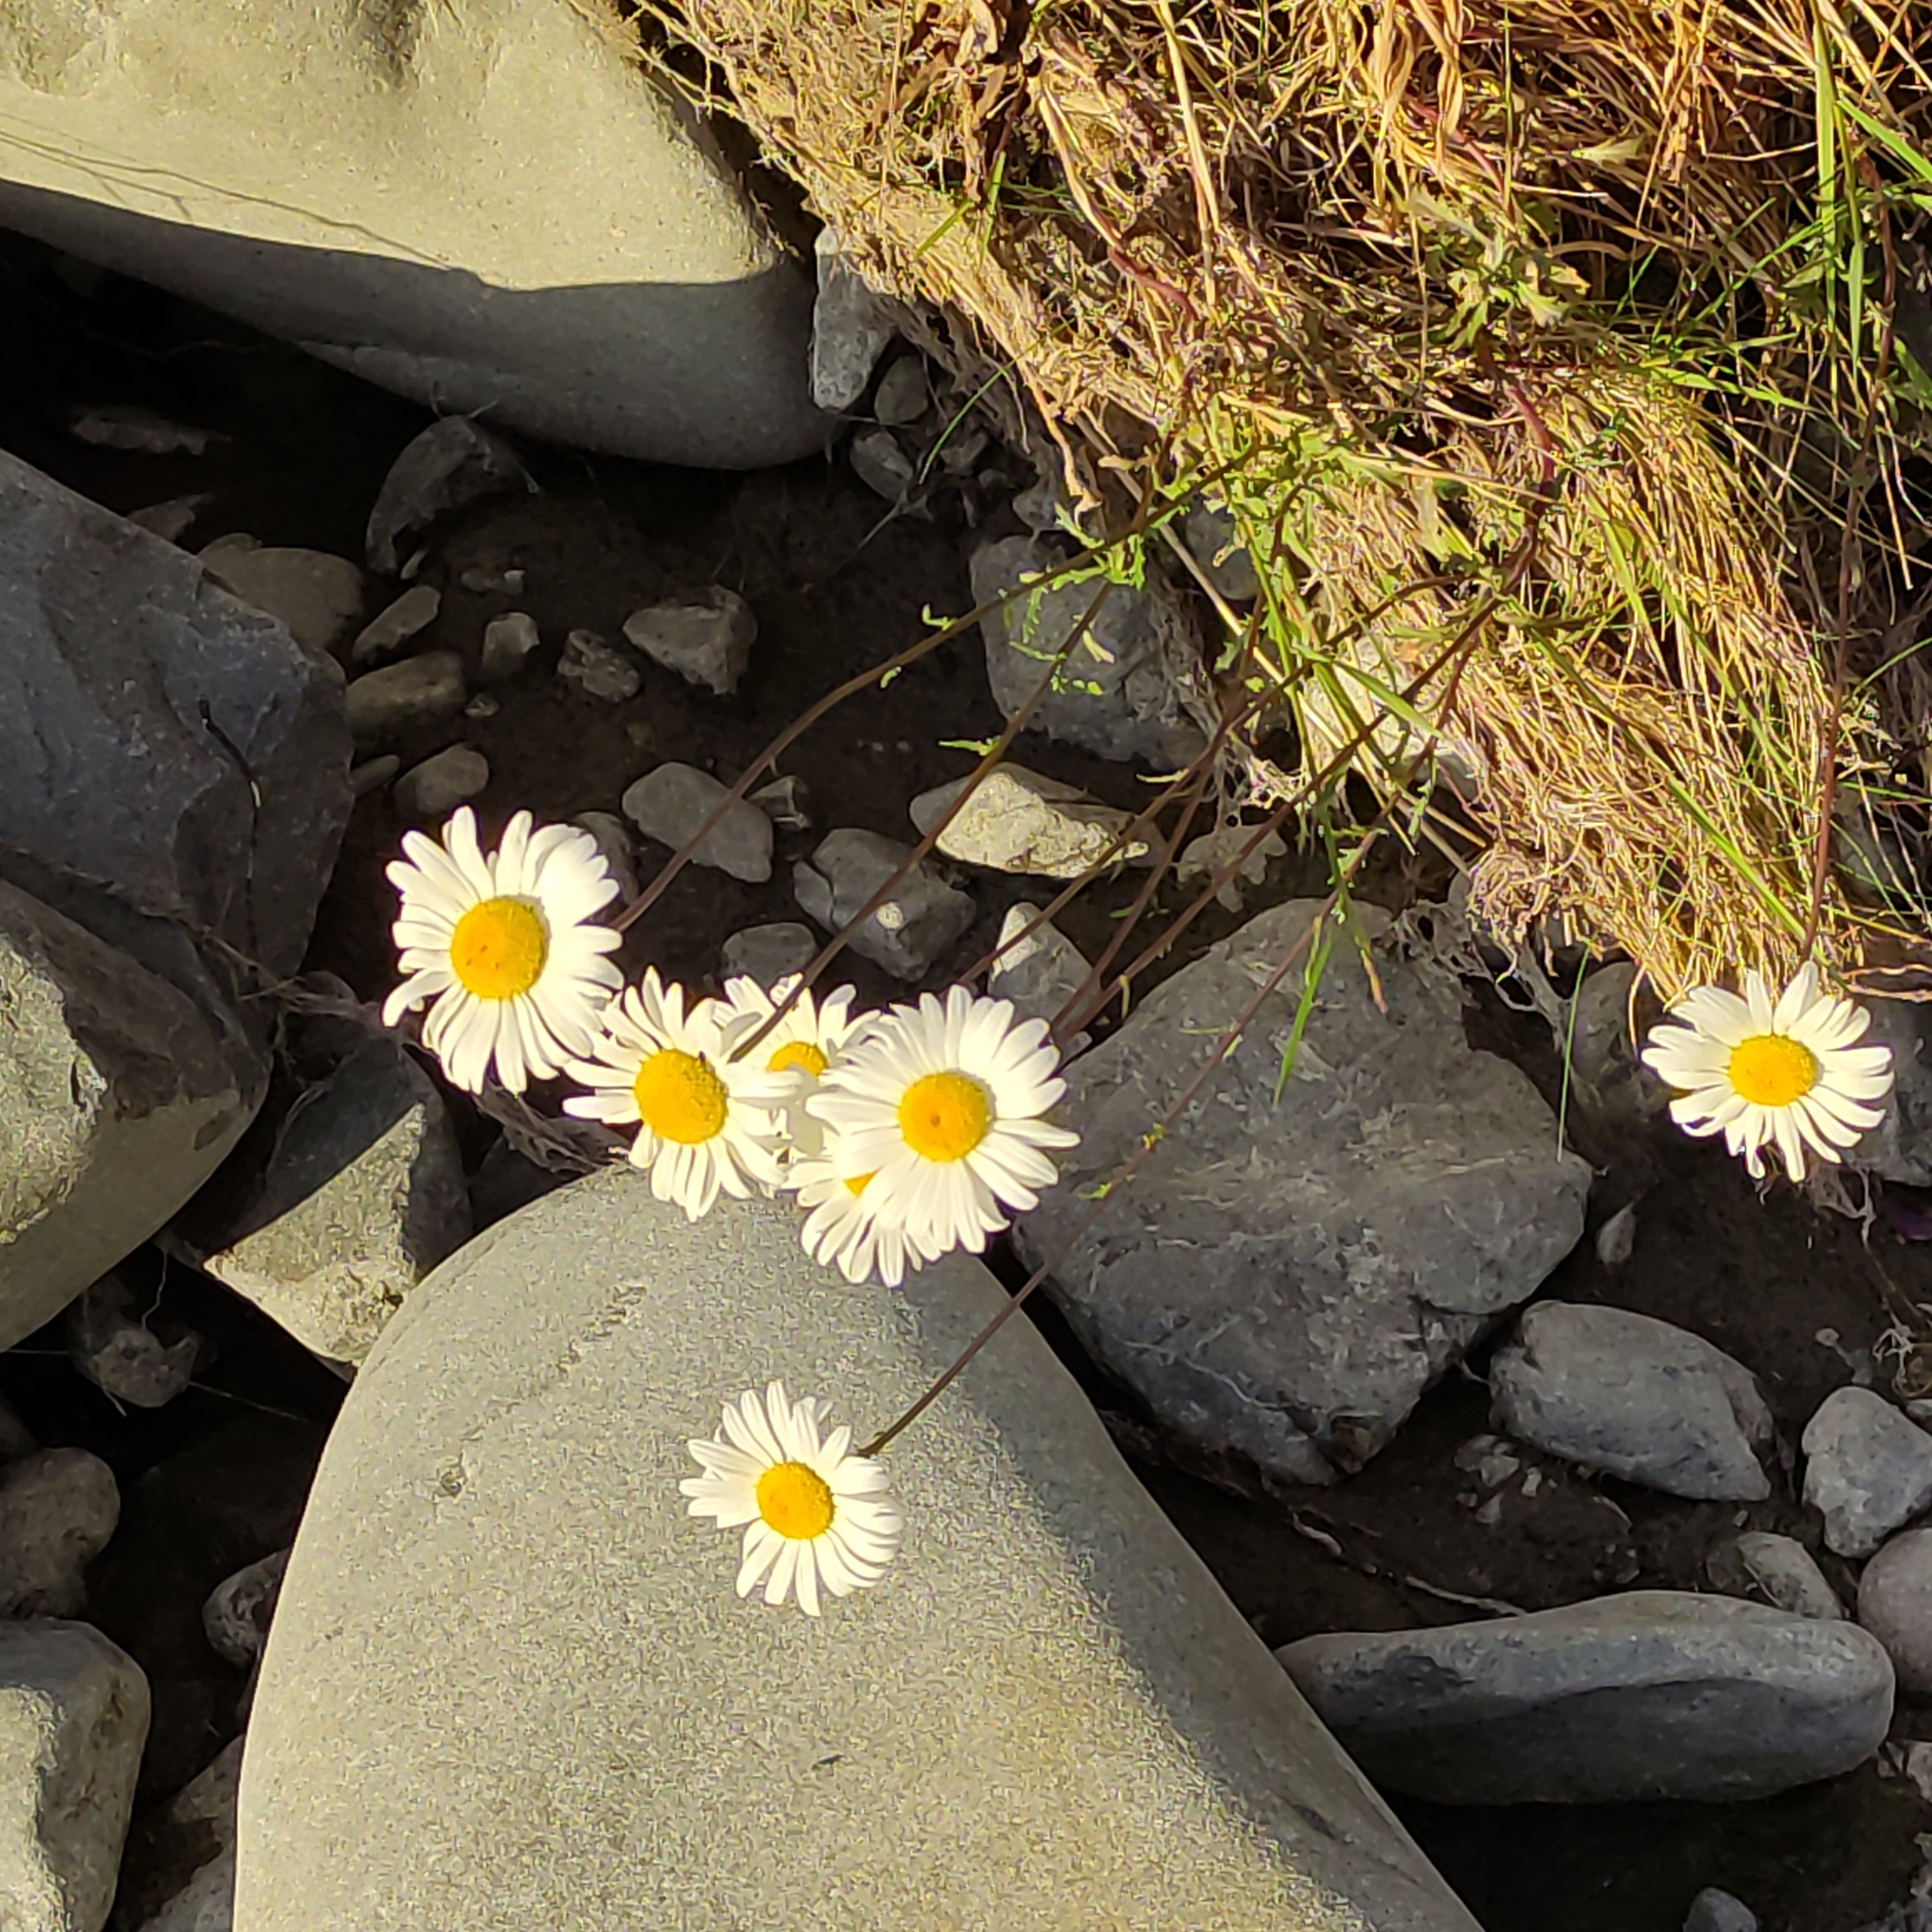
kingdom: Plantae
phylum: Tracheophyta
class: Magnoliopsida
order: Asterales
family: Asteraceae
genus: Leucanthemum
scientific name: Leucanthemum vulgare
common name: Oxeye daisy
